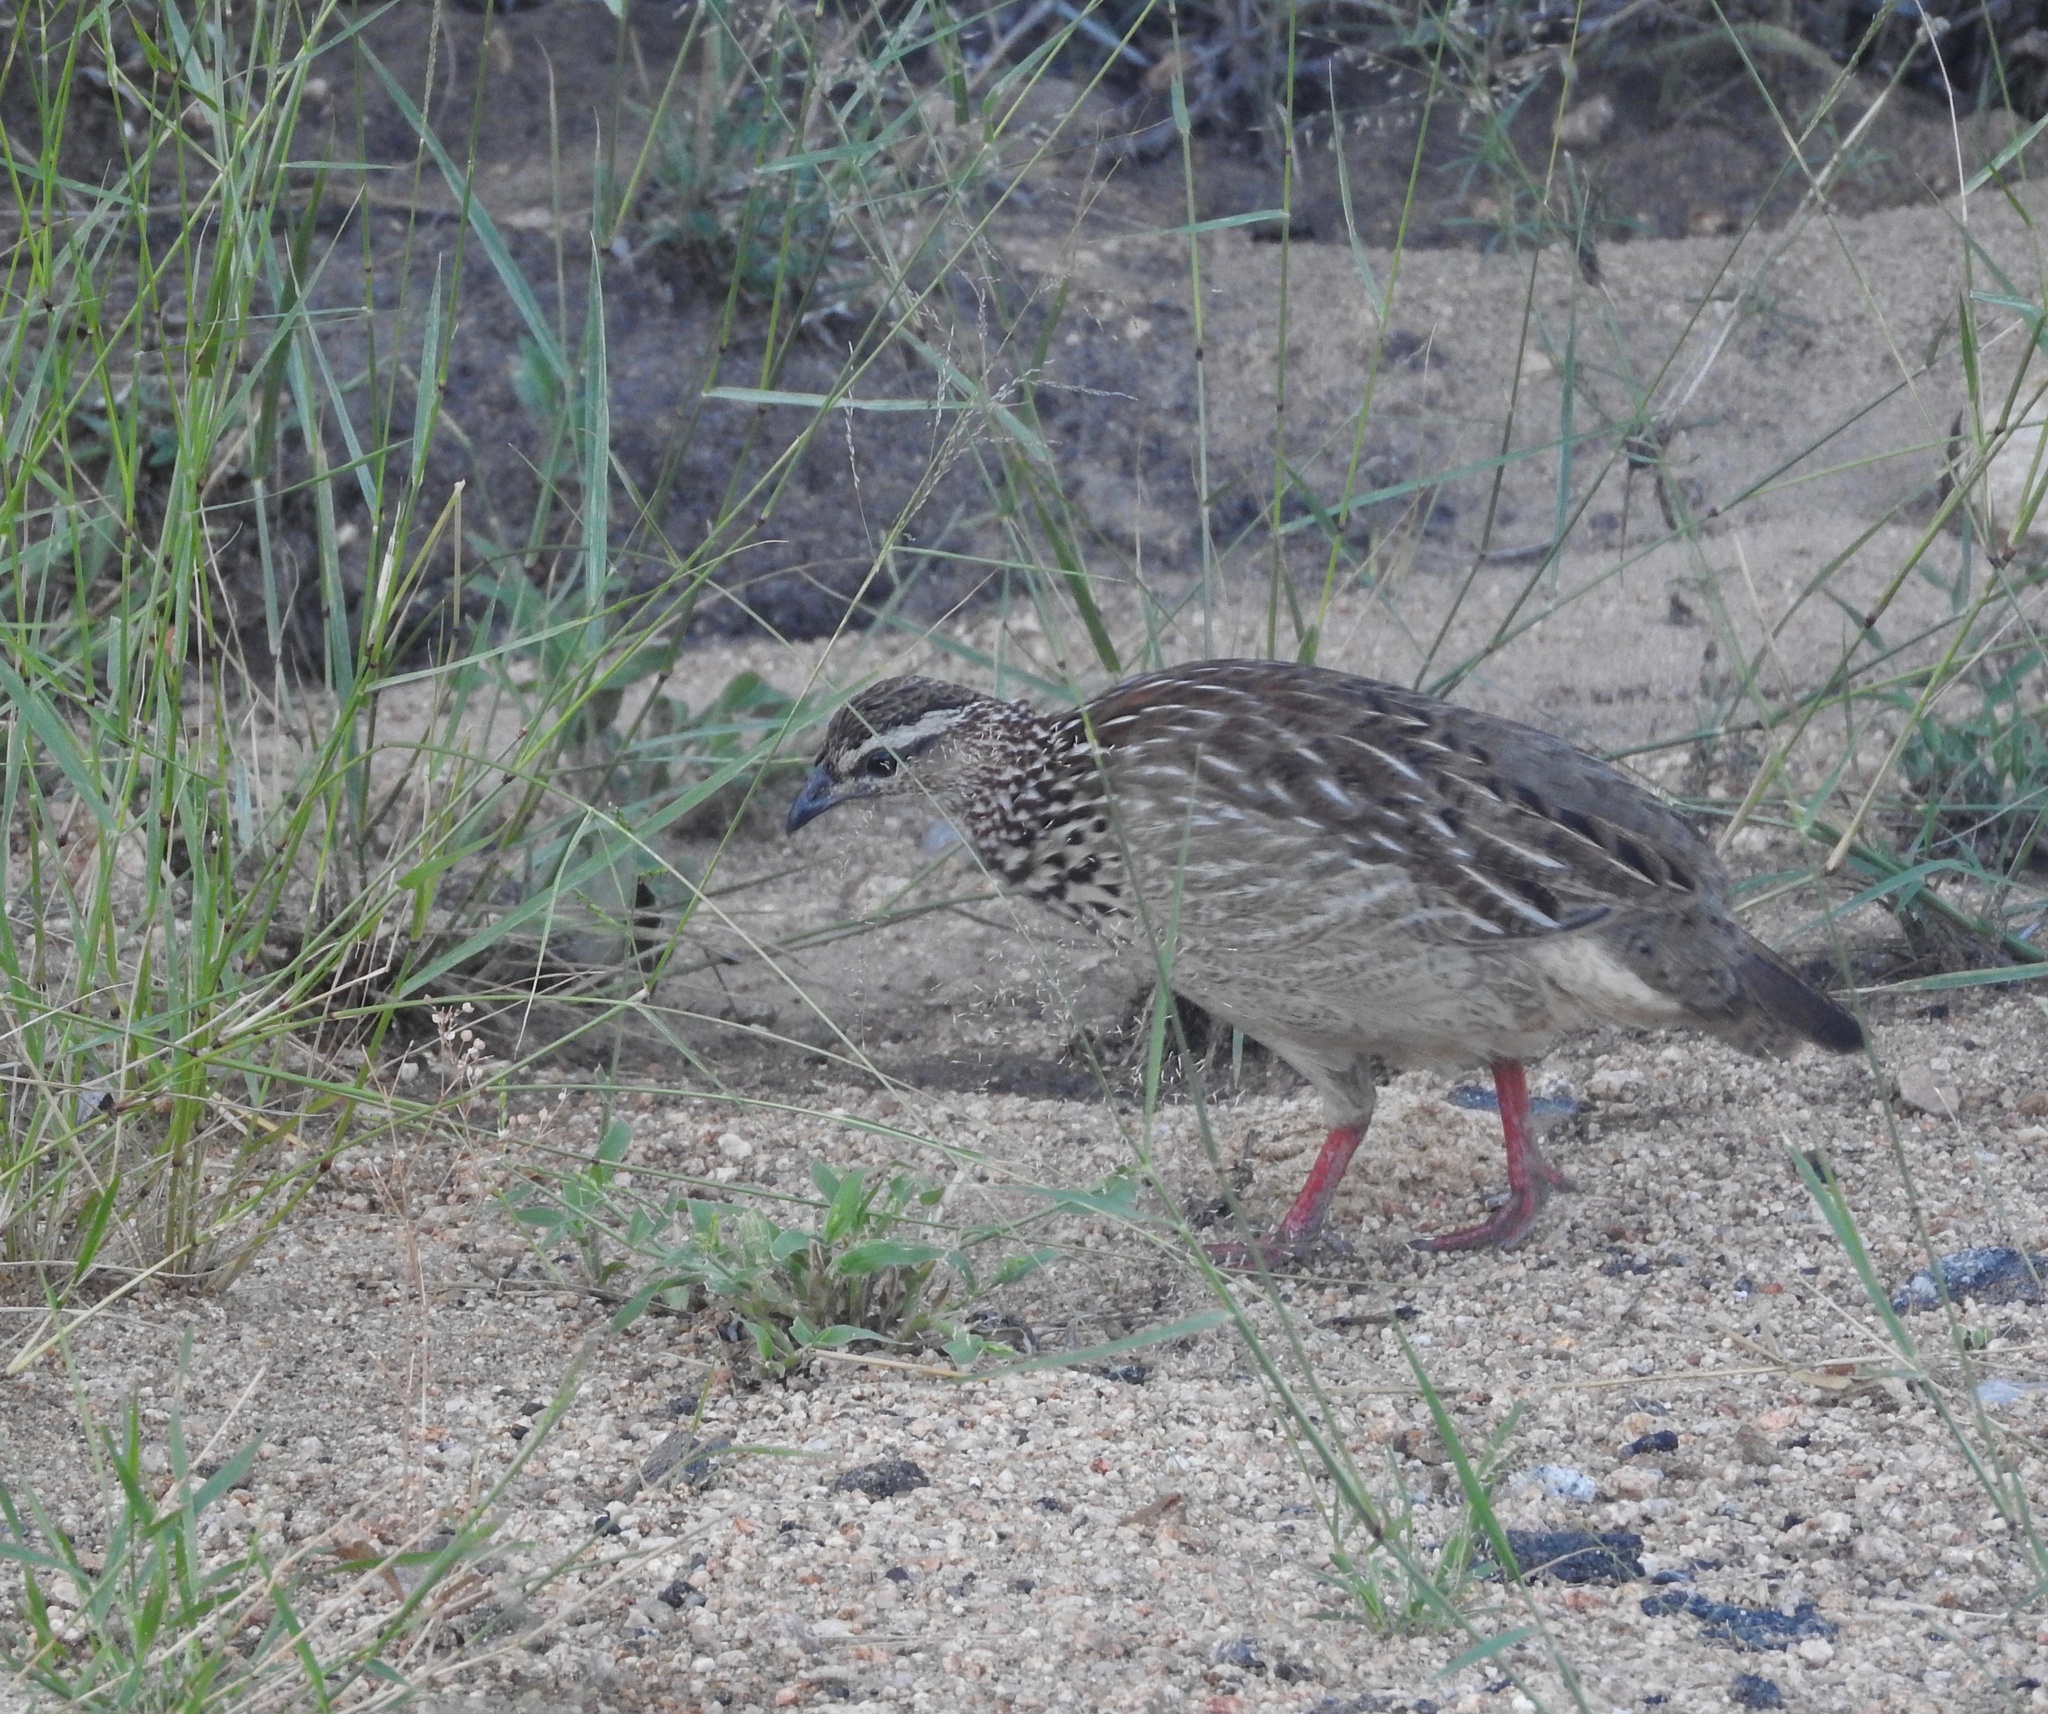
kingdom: Animalia
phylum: Chordata
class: Aves
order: Galliformes
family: Phasianidae
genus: Ortygornis
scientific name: Ortygornis sephaena
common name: Crested francolin
